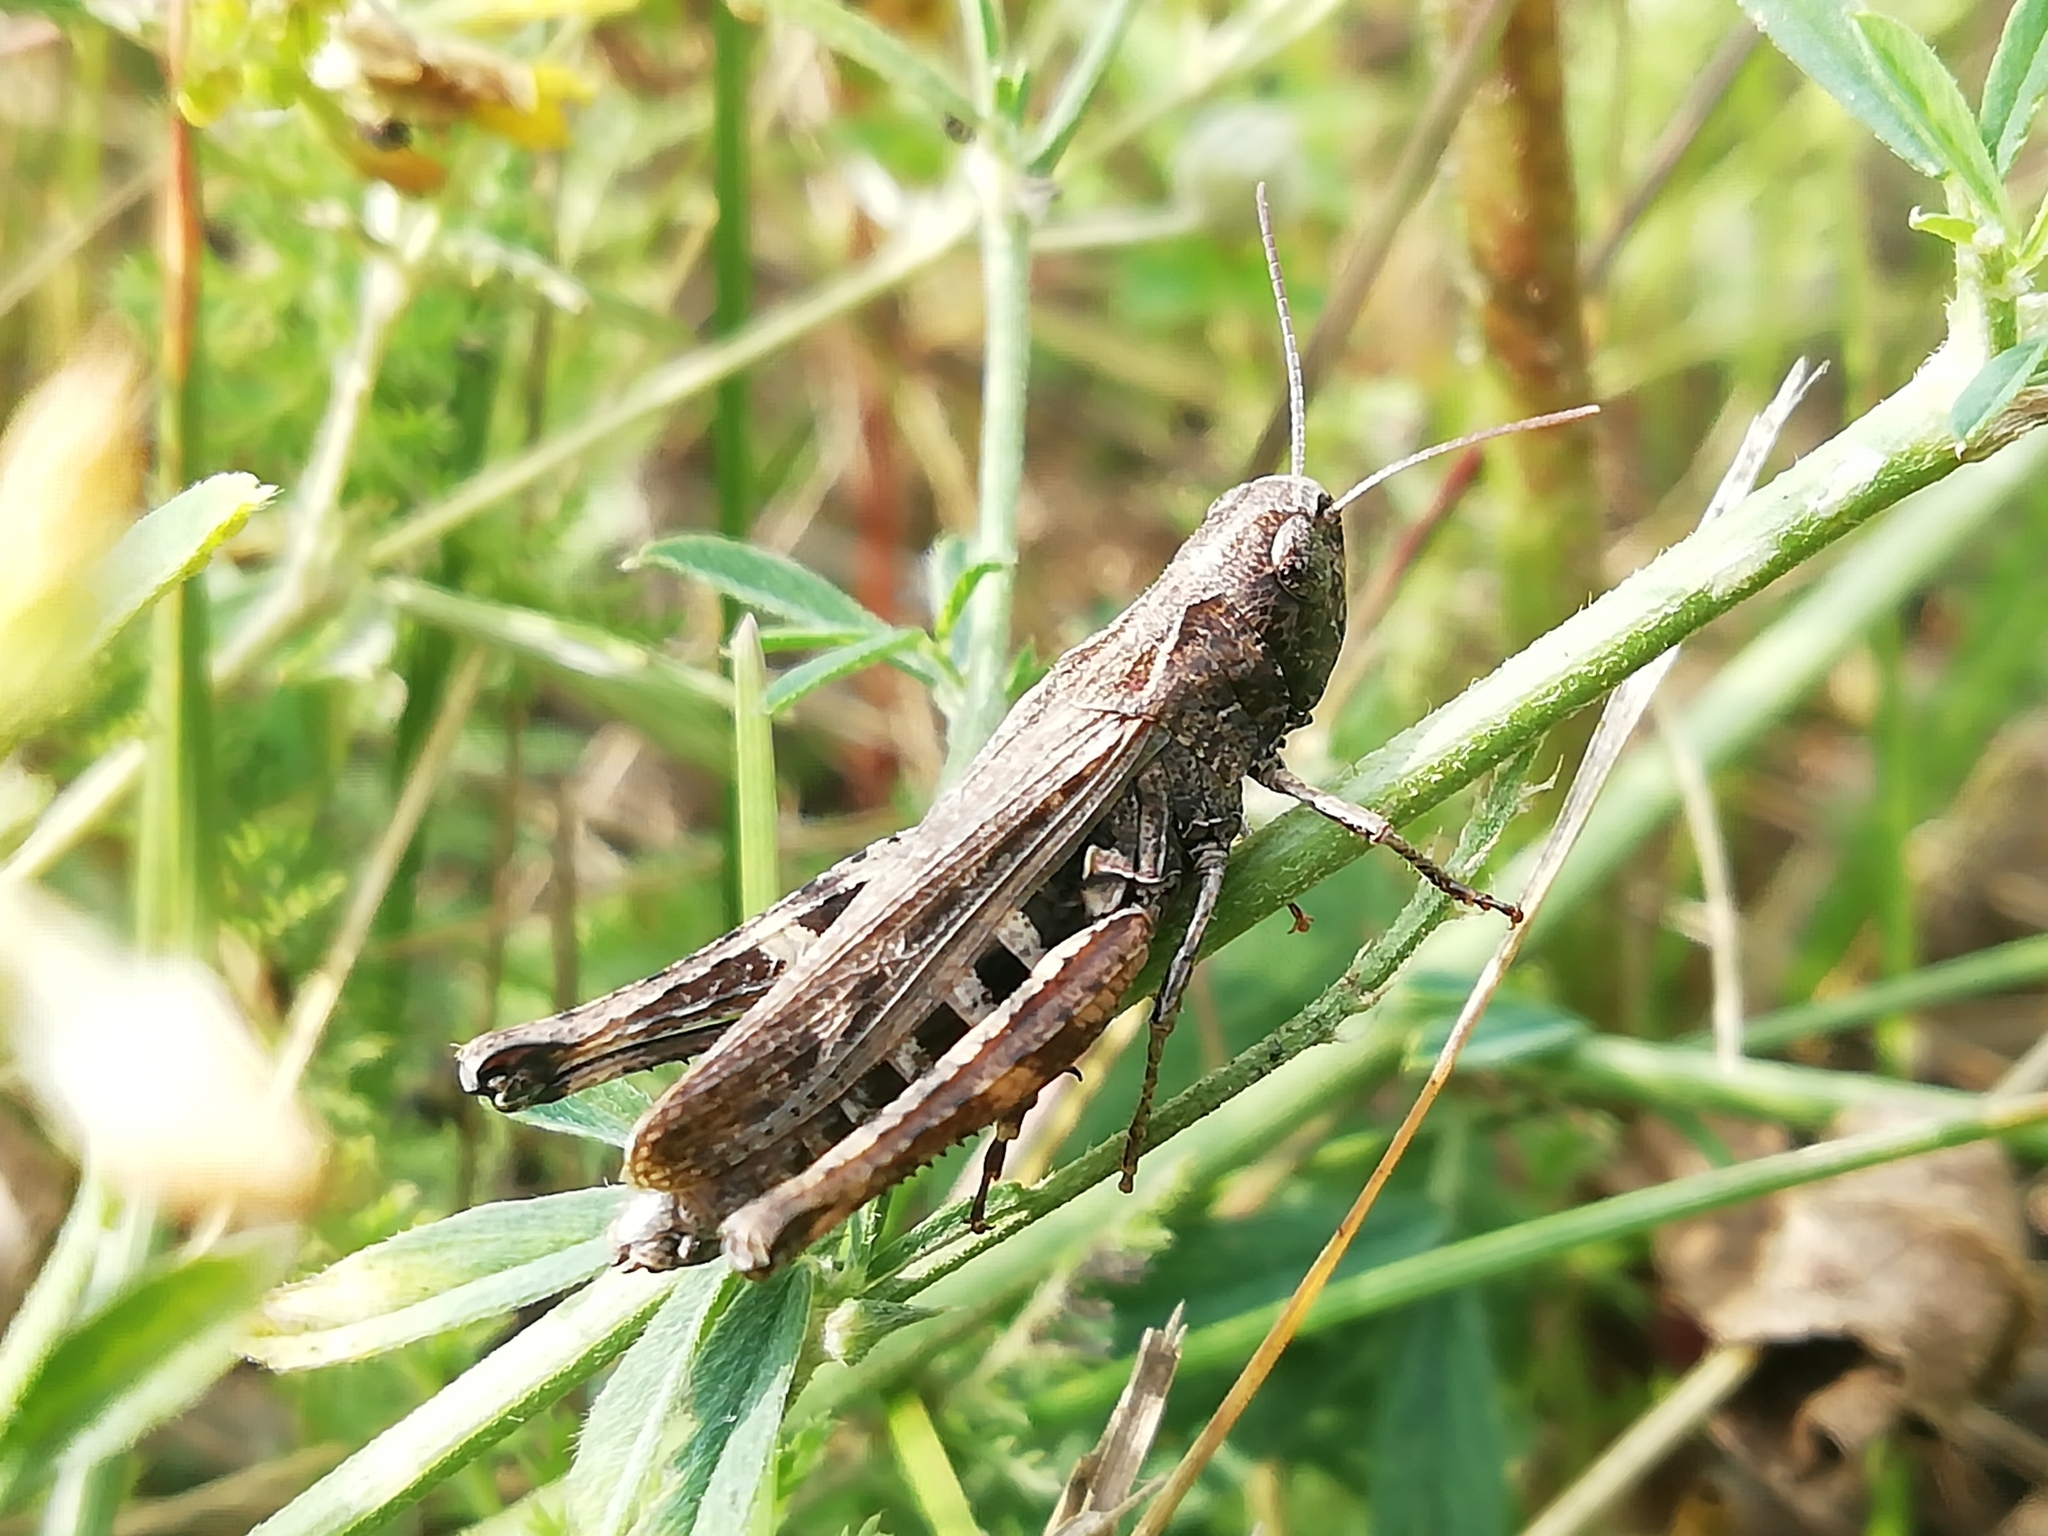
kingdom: Animalia
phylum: Arthropoda
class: Insecta
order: Orthoptera
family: Acrididae
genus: Omocestus
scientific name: Omocestus haemorrhoidalis
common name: Orange-tipped grasshopper
